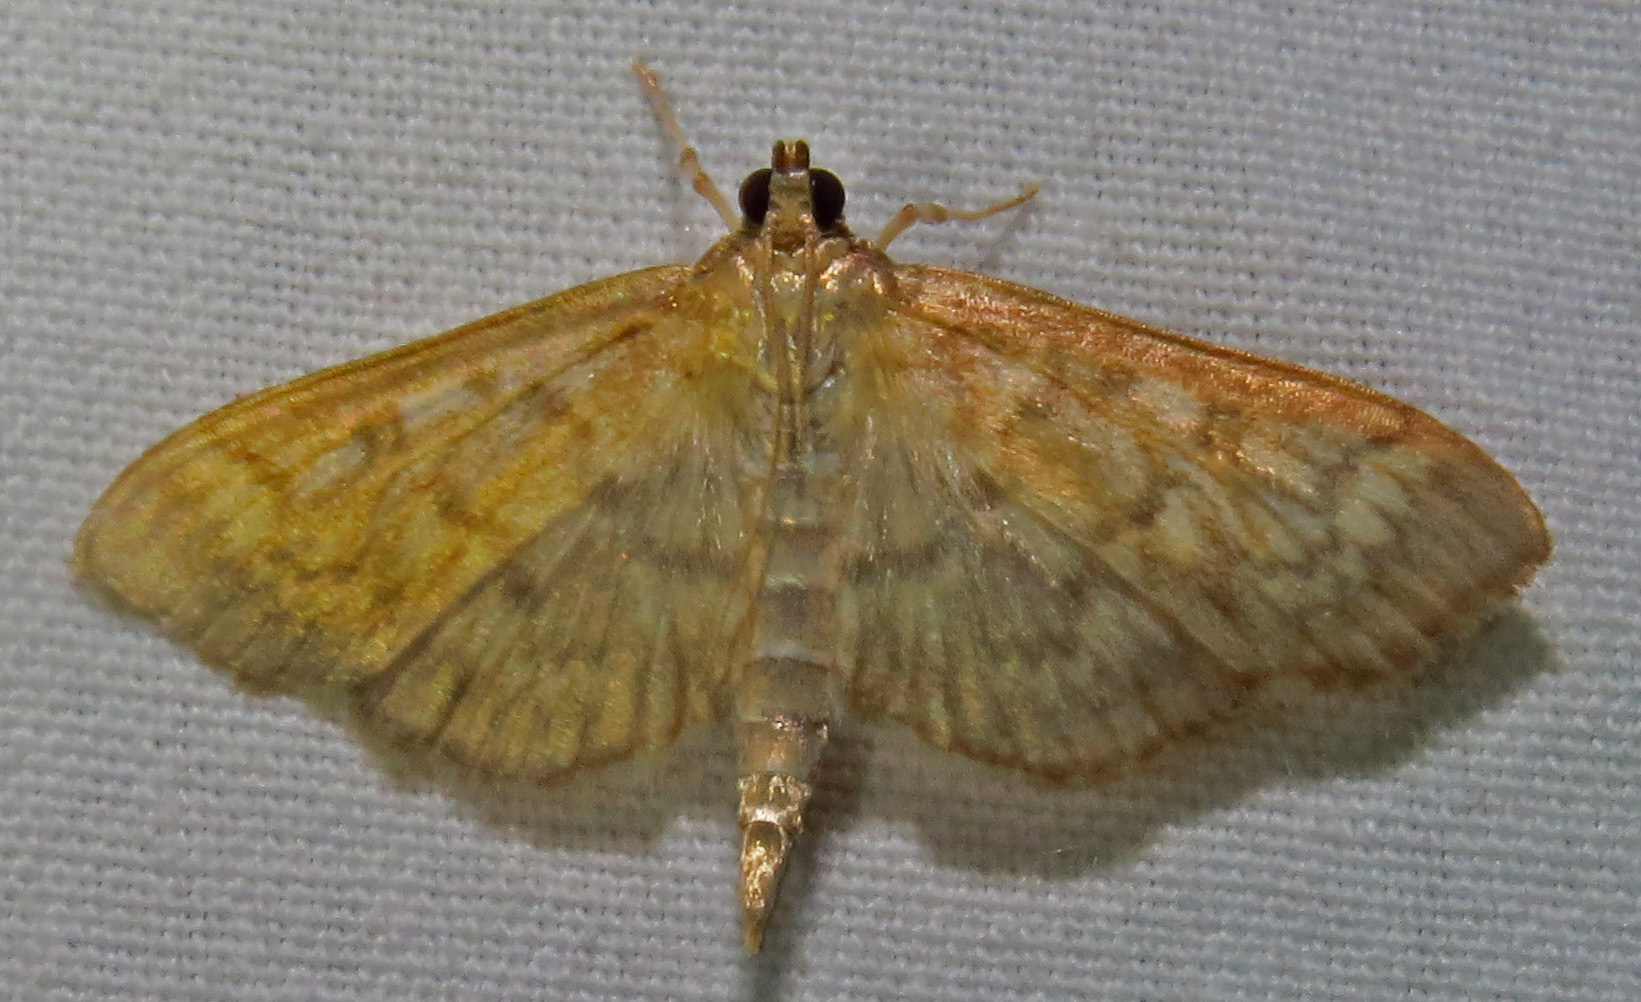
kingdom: Animalia
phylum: Arthropoda
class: Insecta
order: Lepidoptera
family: Crambidae
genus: Herpetogramma
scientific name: Herpetogramma pertextalis
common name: Bold-feathered grass moth
